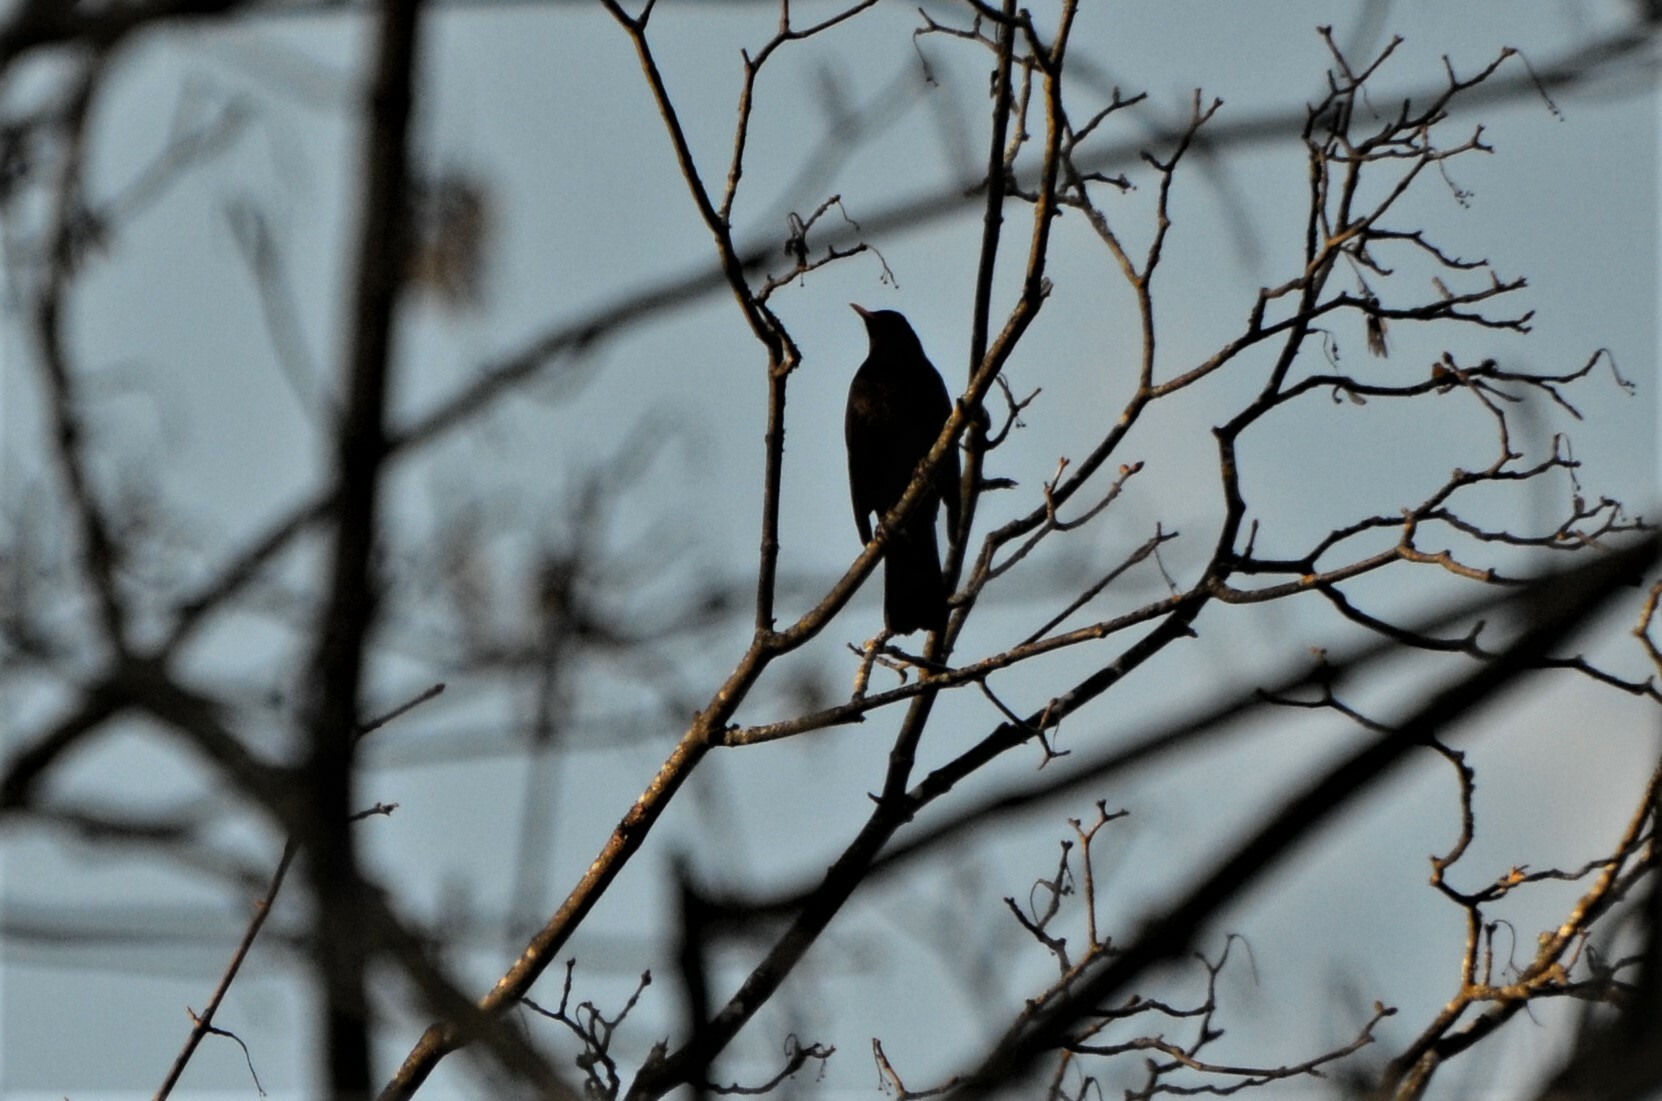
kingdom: Animalia
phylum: Chordata
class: Aves
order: Passeriformes
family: Turdidae
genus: Turdus
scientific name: Turdus merula
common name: Common blackbird
